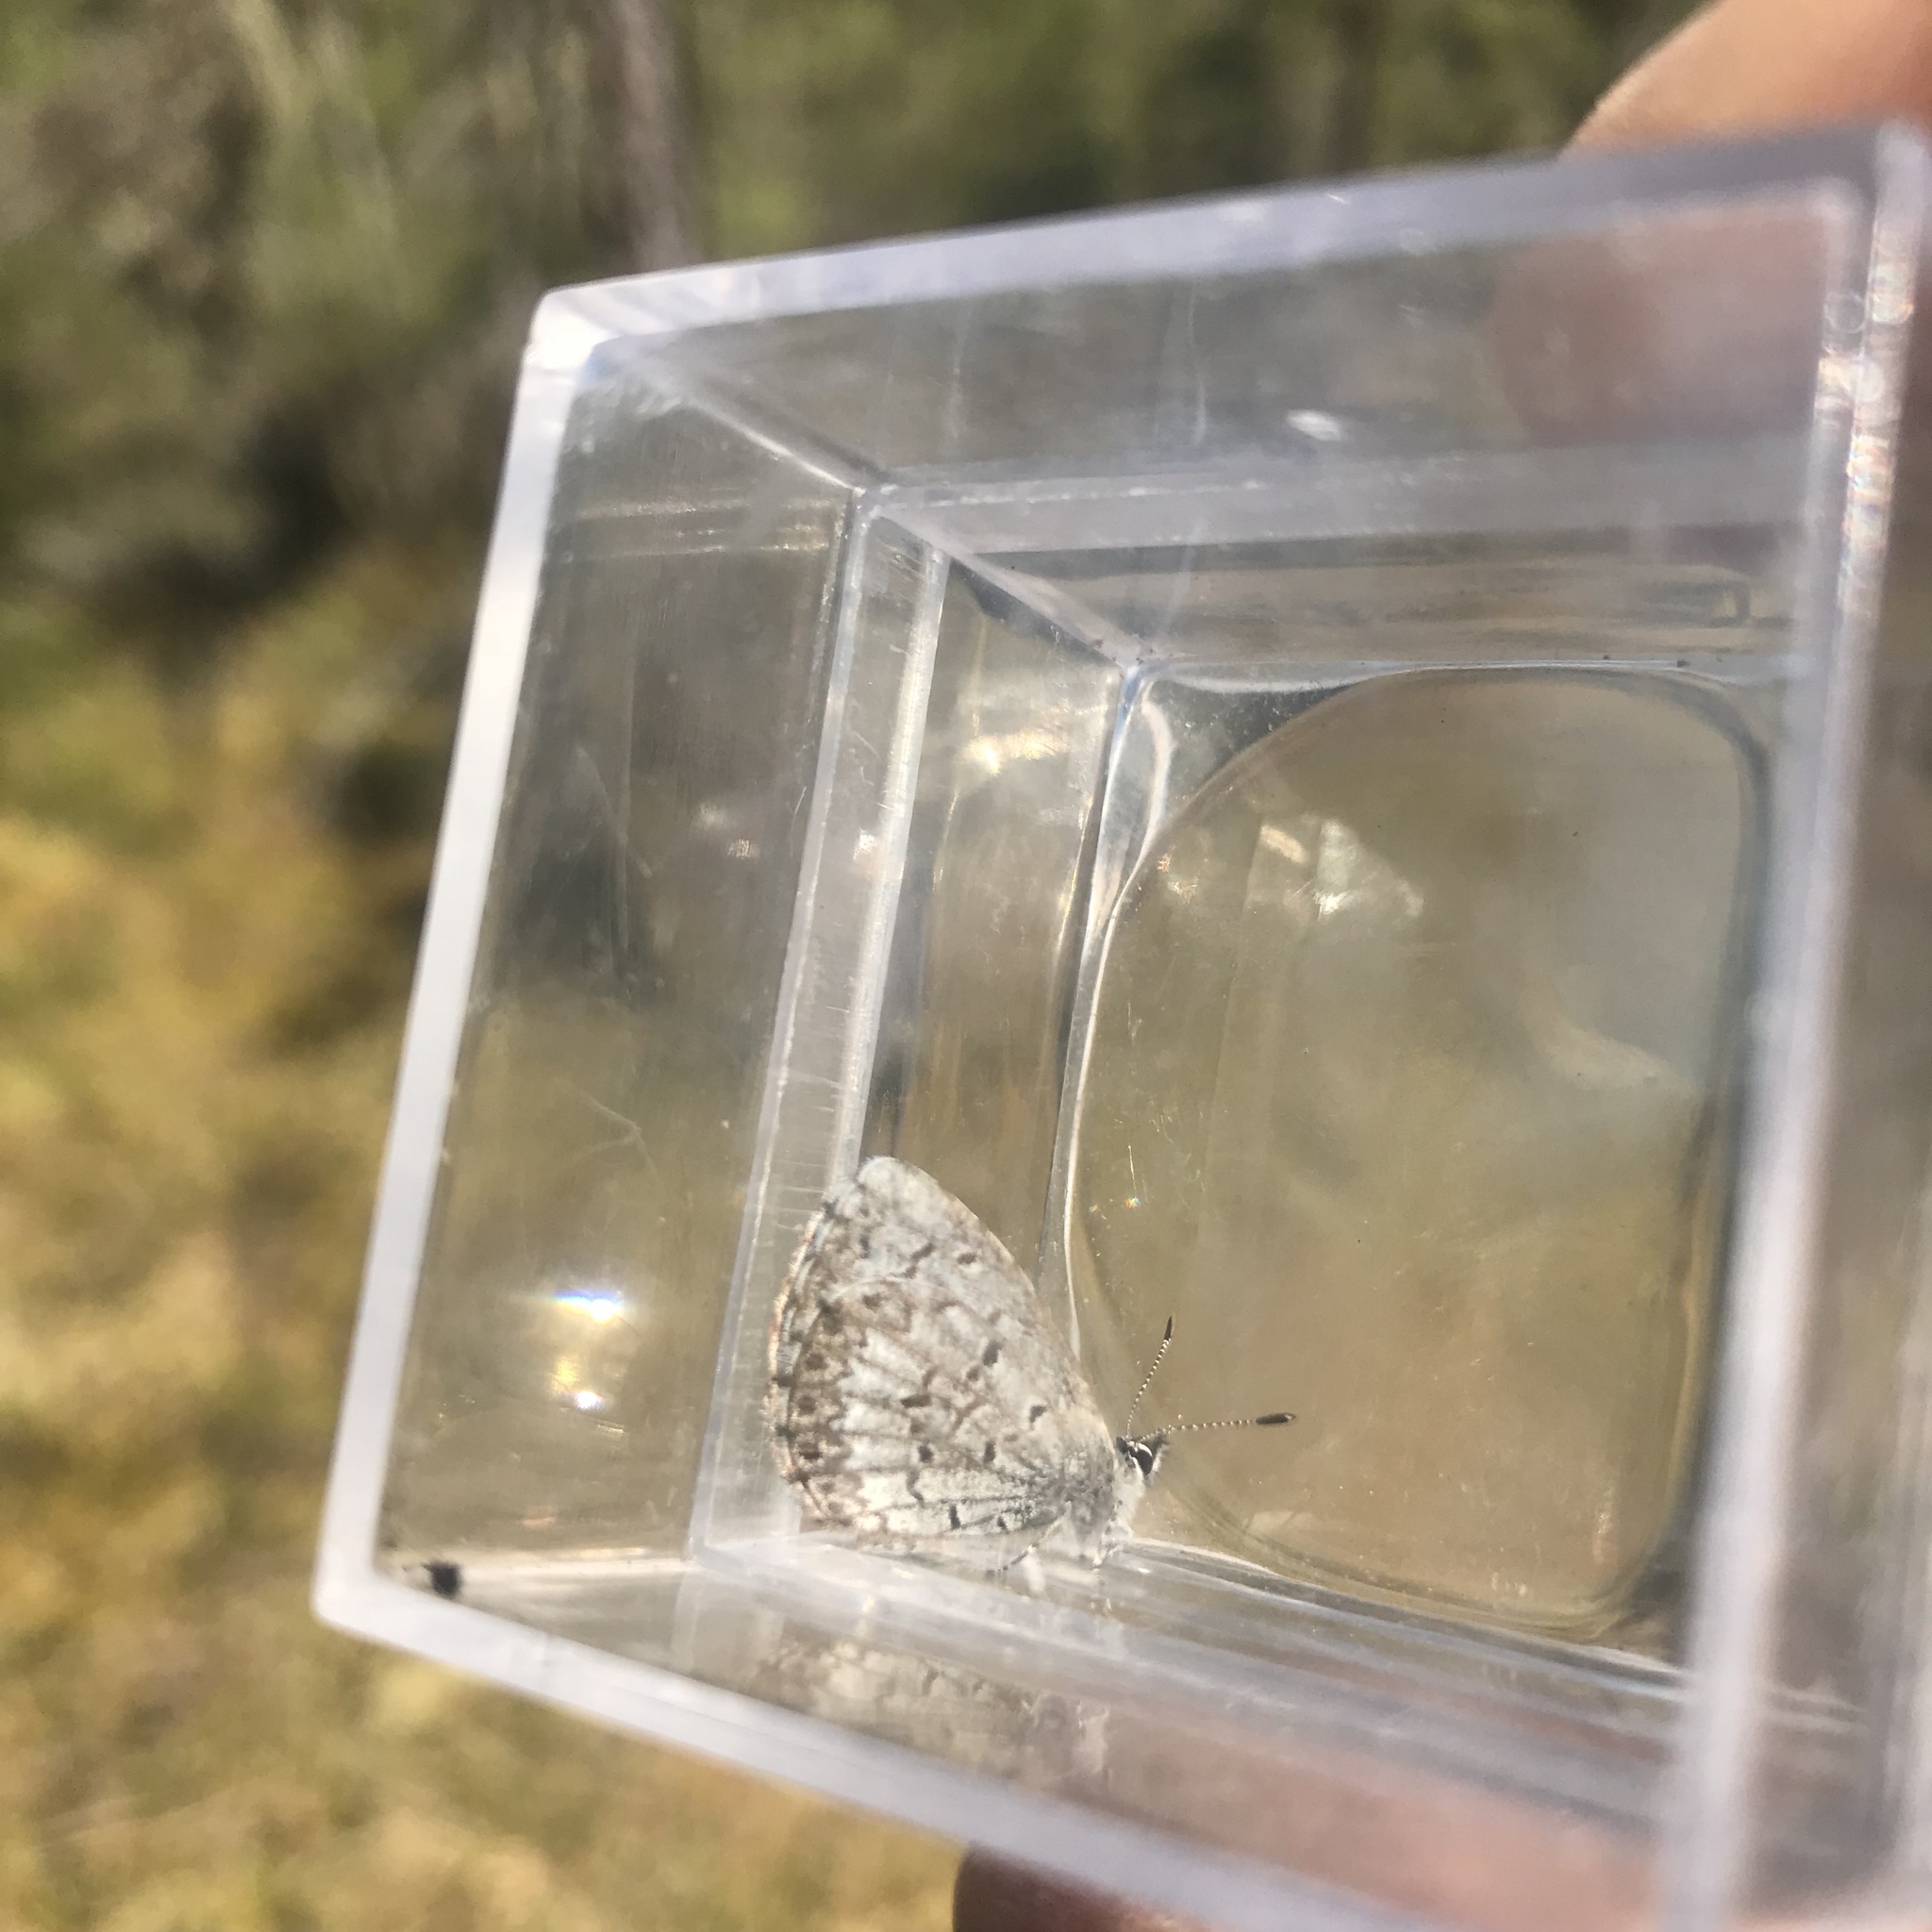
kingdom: Animalia
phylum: Arthropoda
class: Insecta
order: Lepidoptera
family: Lycaenidae
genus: Celastrina
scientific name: Celastrina lucia
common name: Lucia azure
